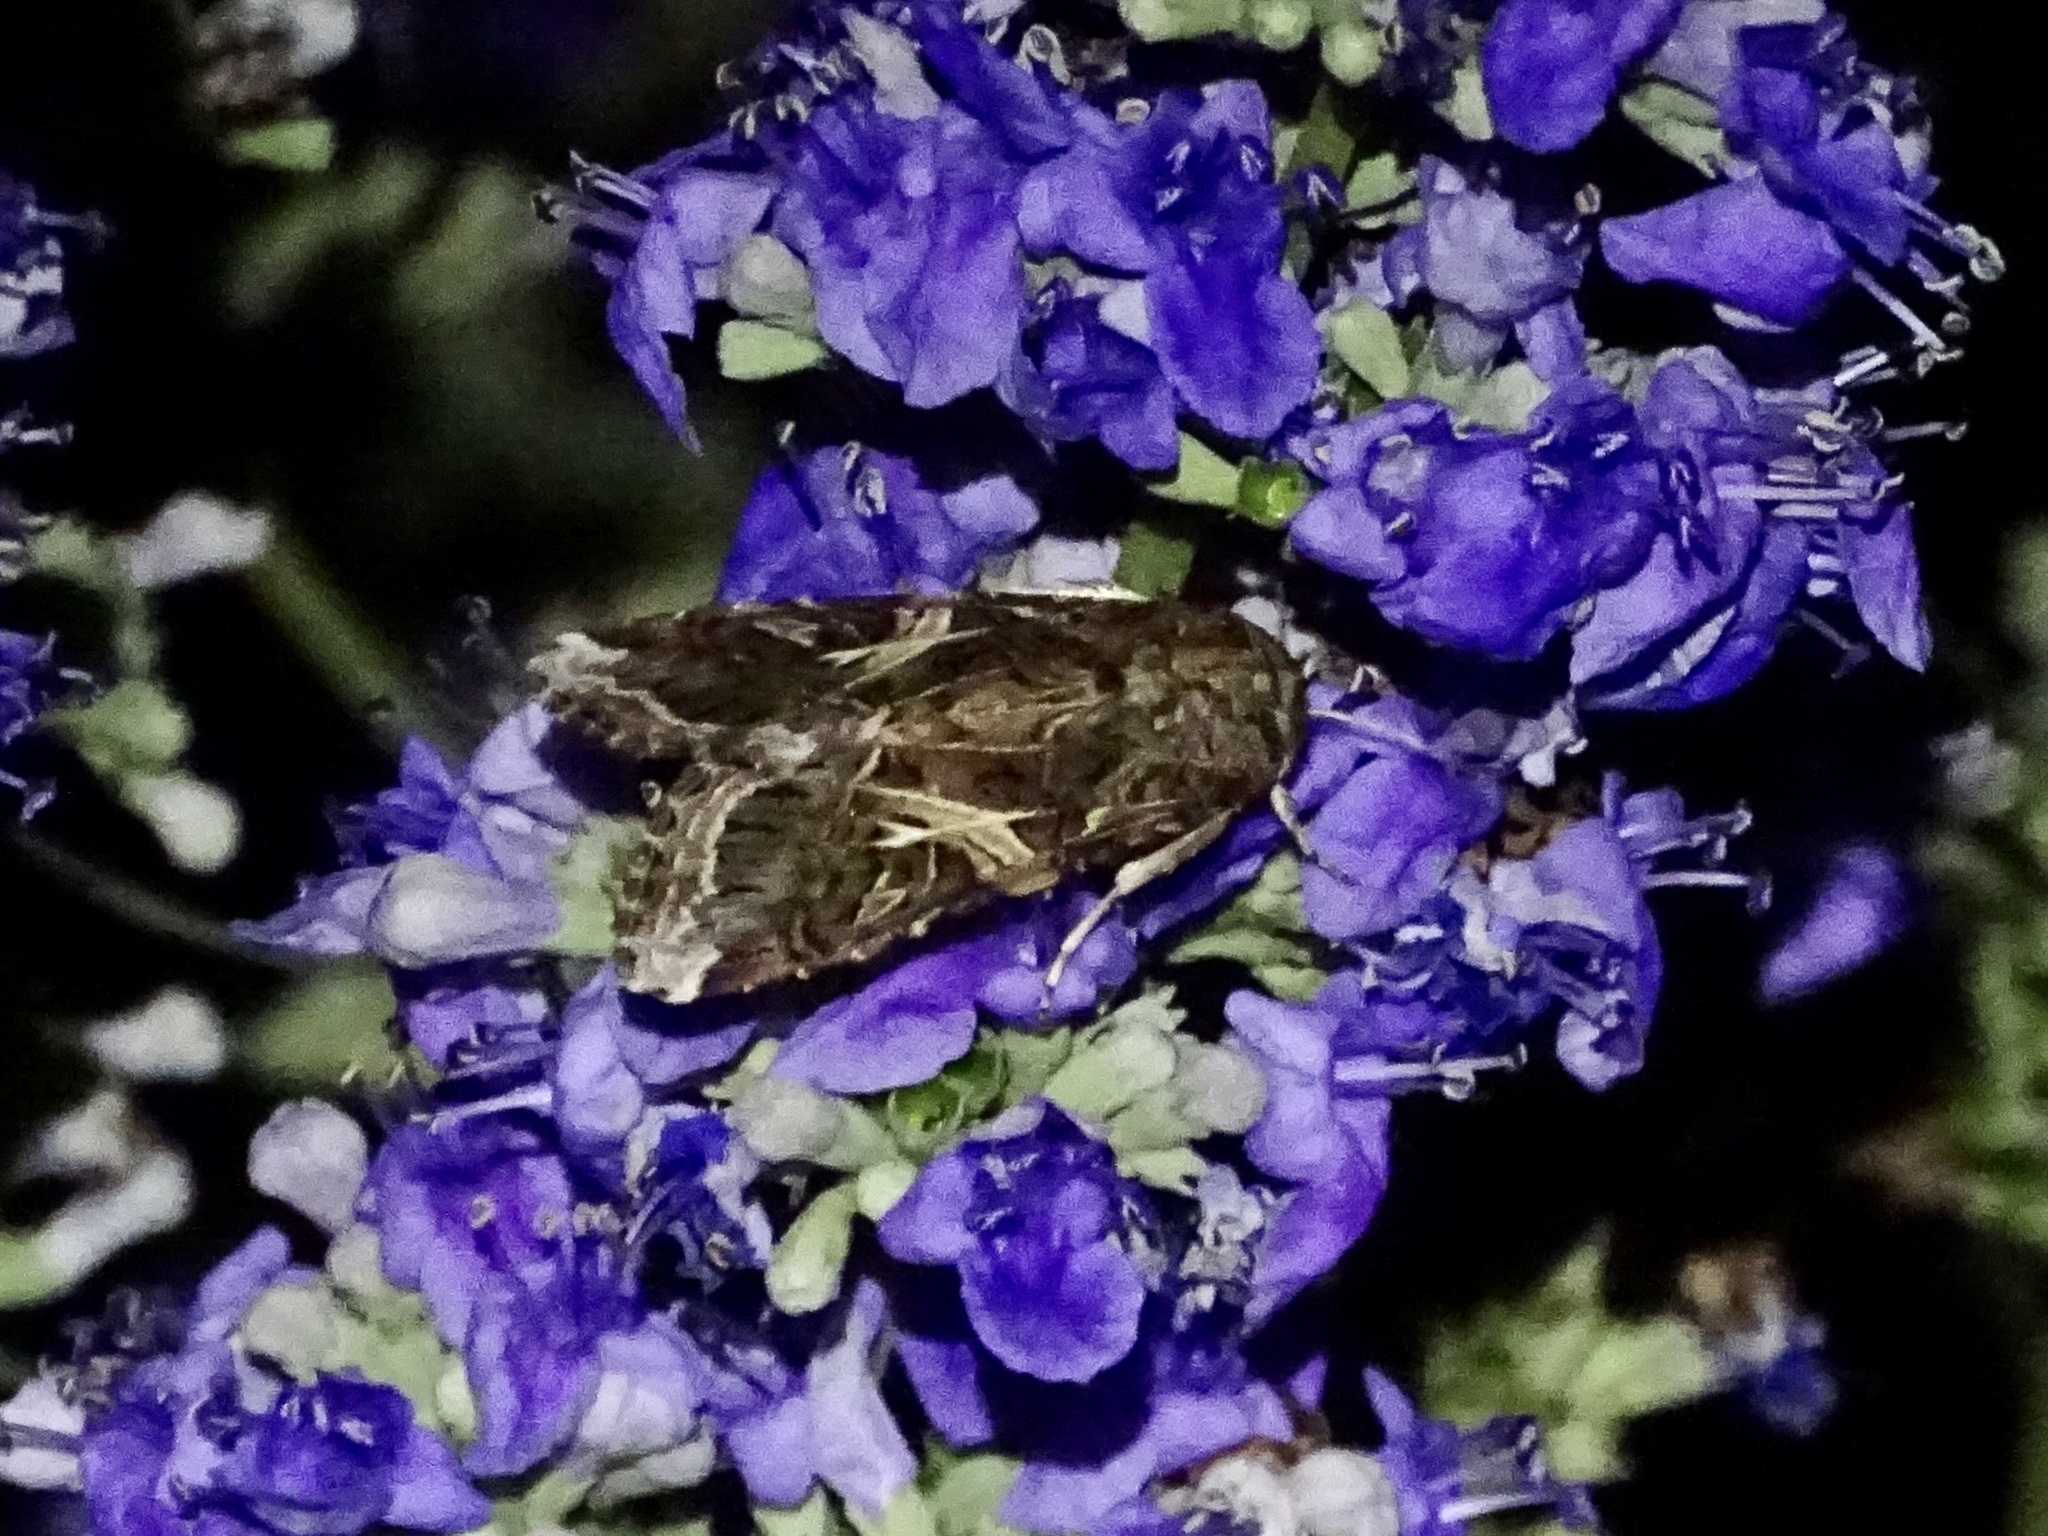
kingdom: Animalia
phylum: Arthropoda
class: Insecta
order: Lepidoptera
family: Noctuidae
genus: Spodoptera
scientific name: Spodoptera ornithogalli
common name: Yellow-striped armyworm
